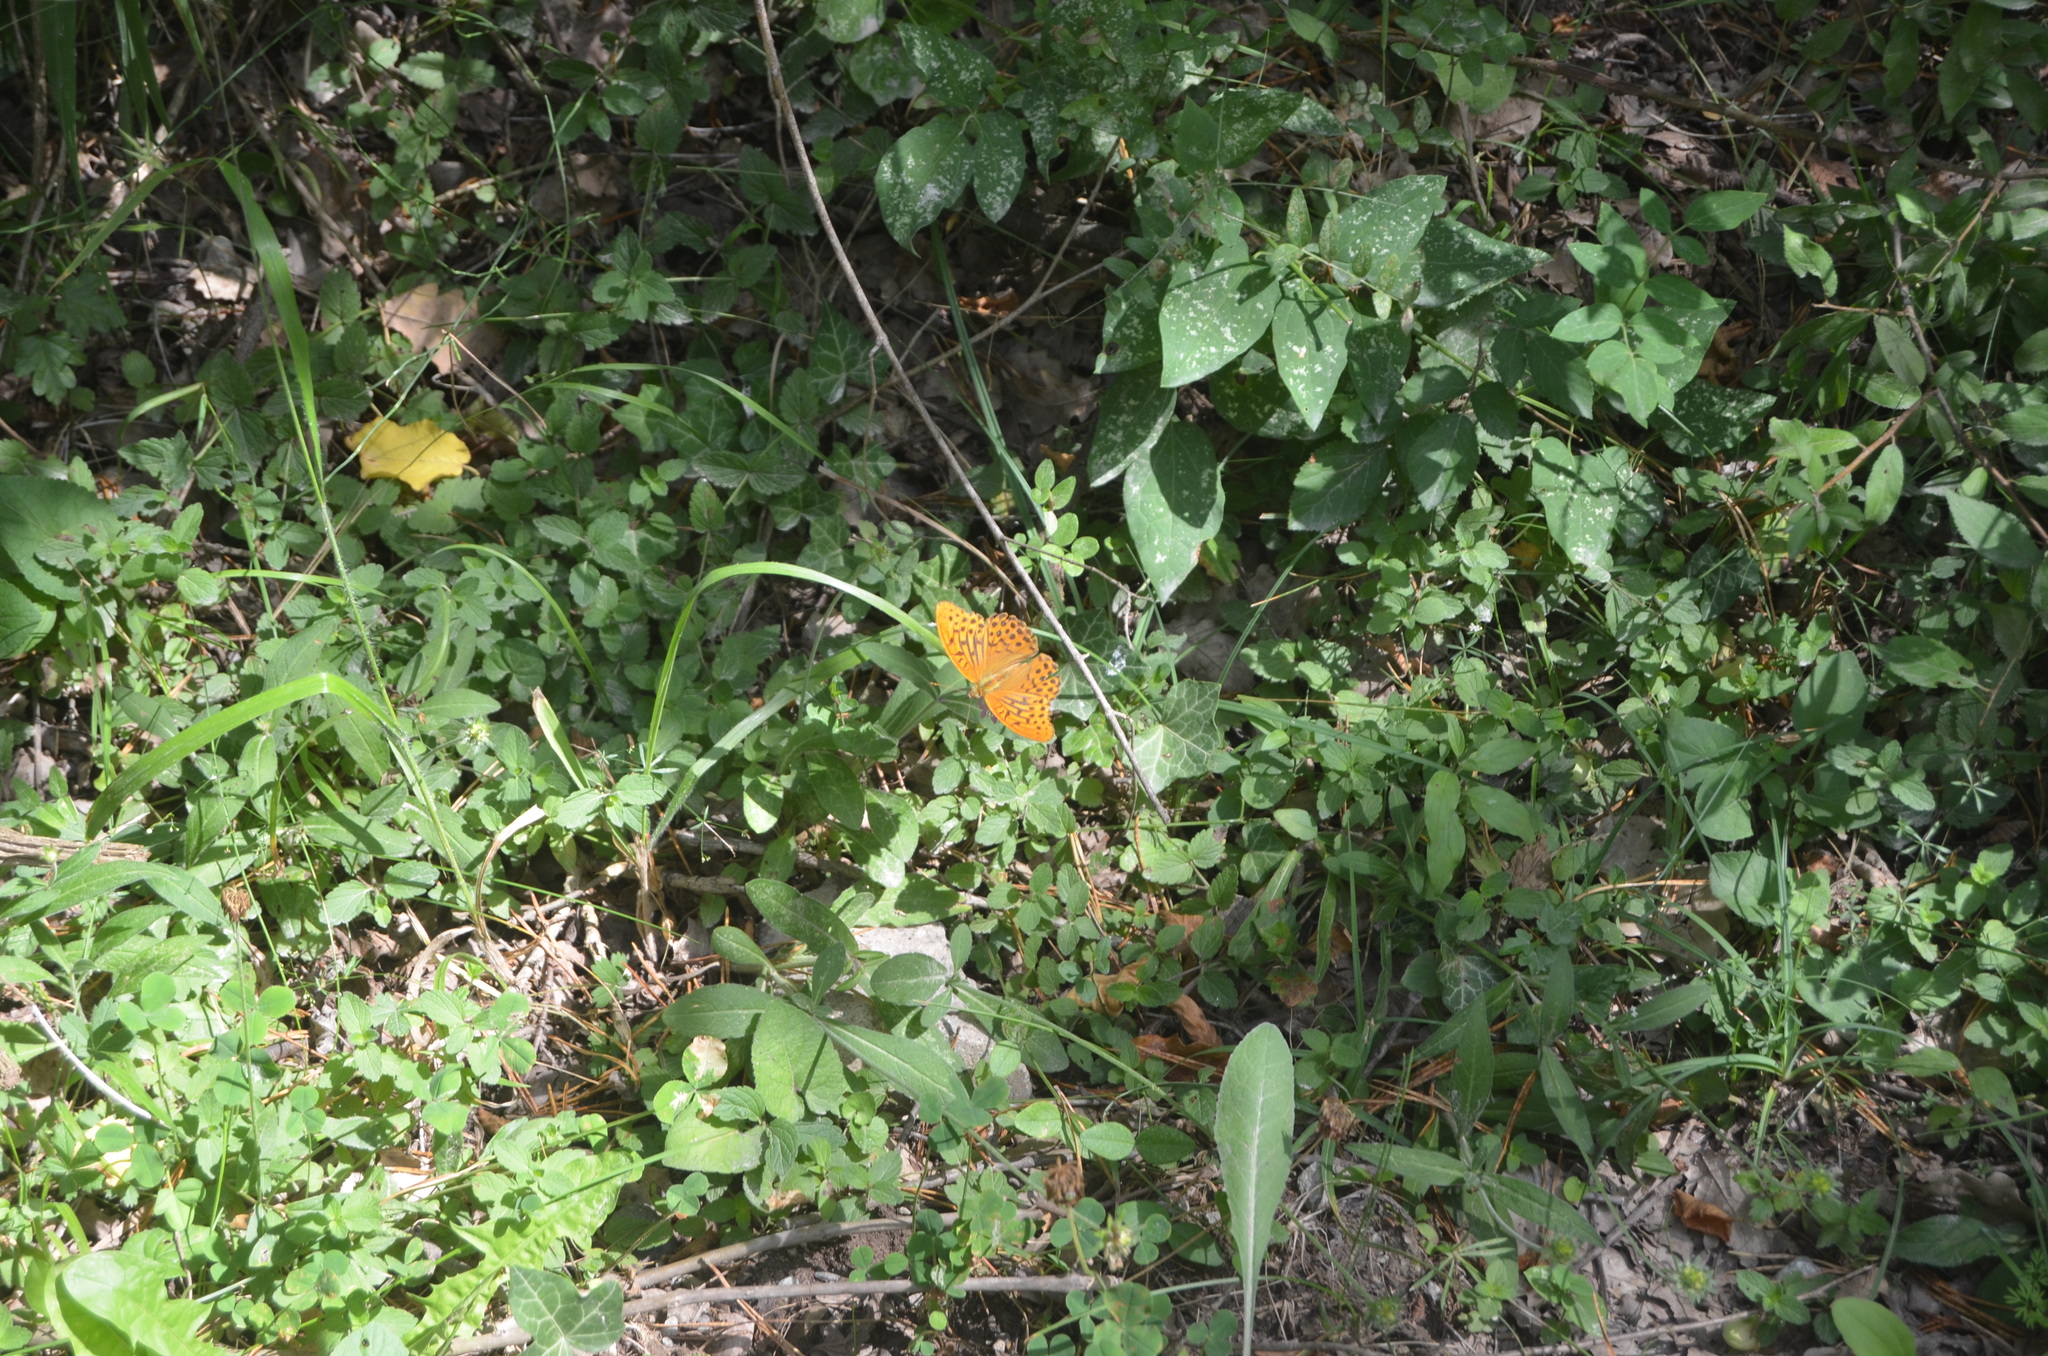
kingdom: Animalia
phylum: Arthropoda
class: Insecta
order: Lepidoptera
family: Nymphalidae
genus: Argynnis
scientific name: Argynnis paphia
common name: Silver-washed fritillary
